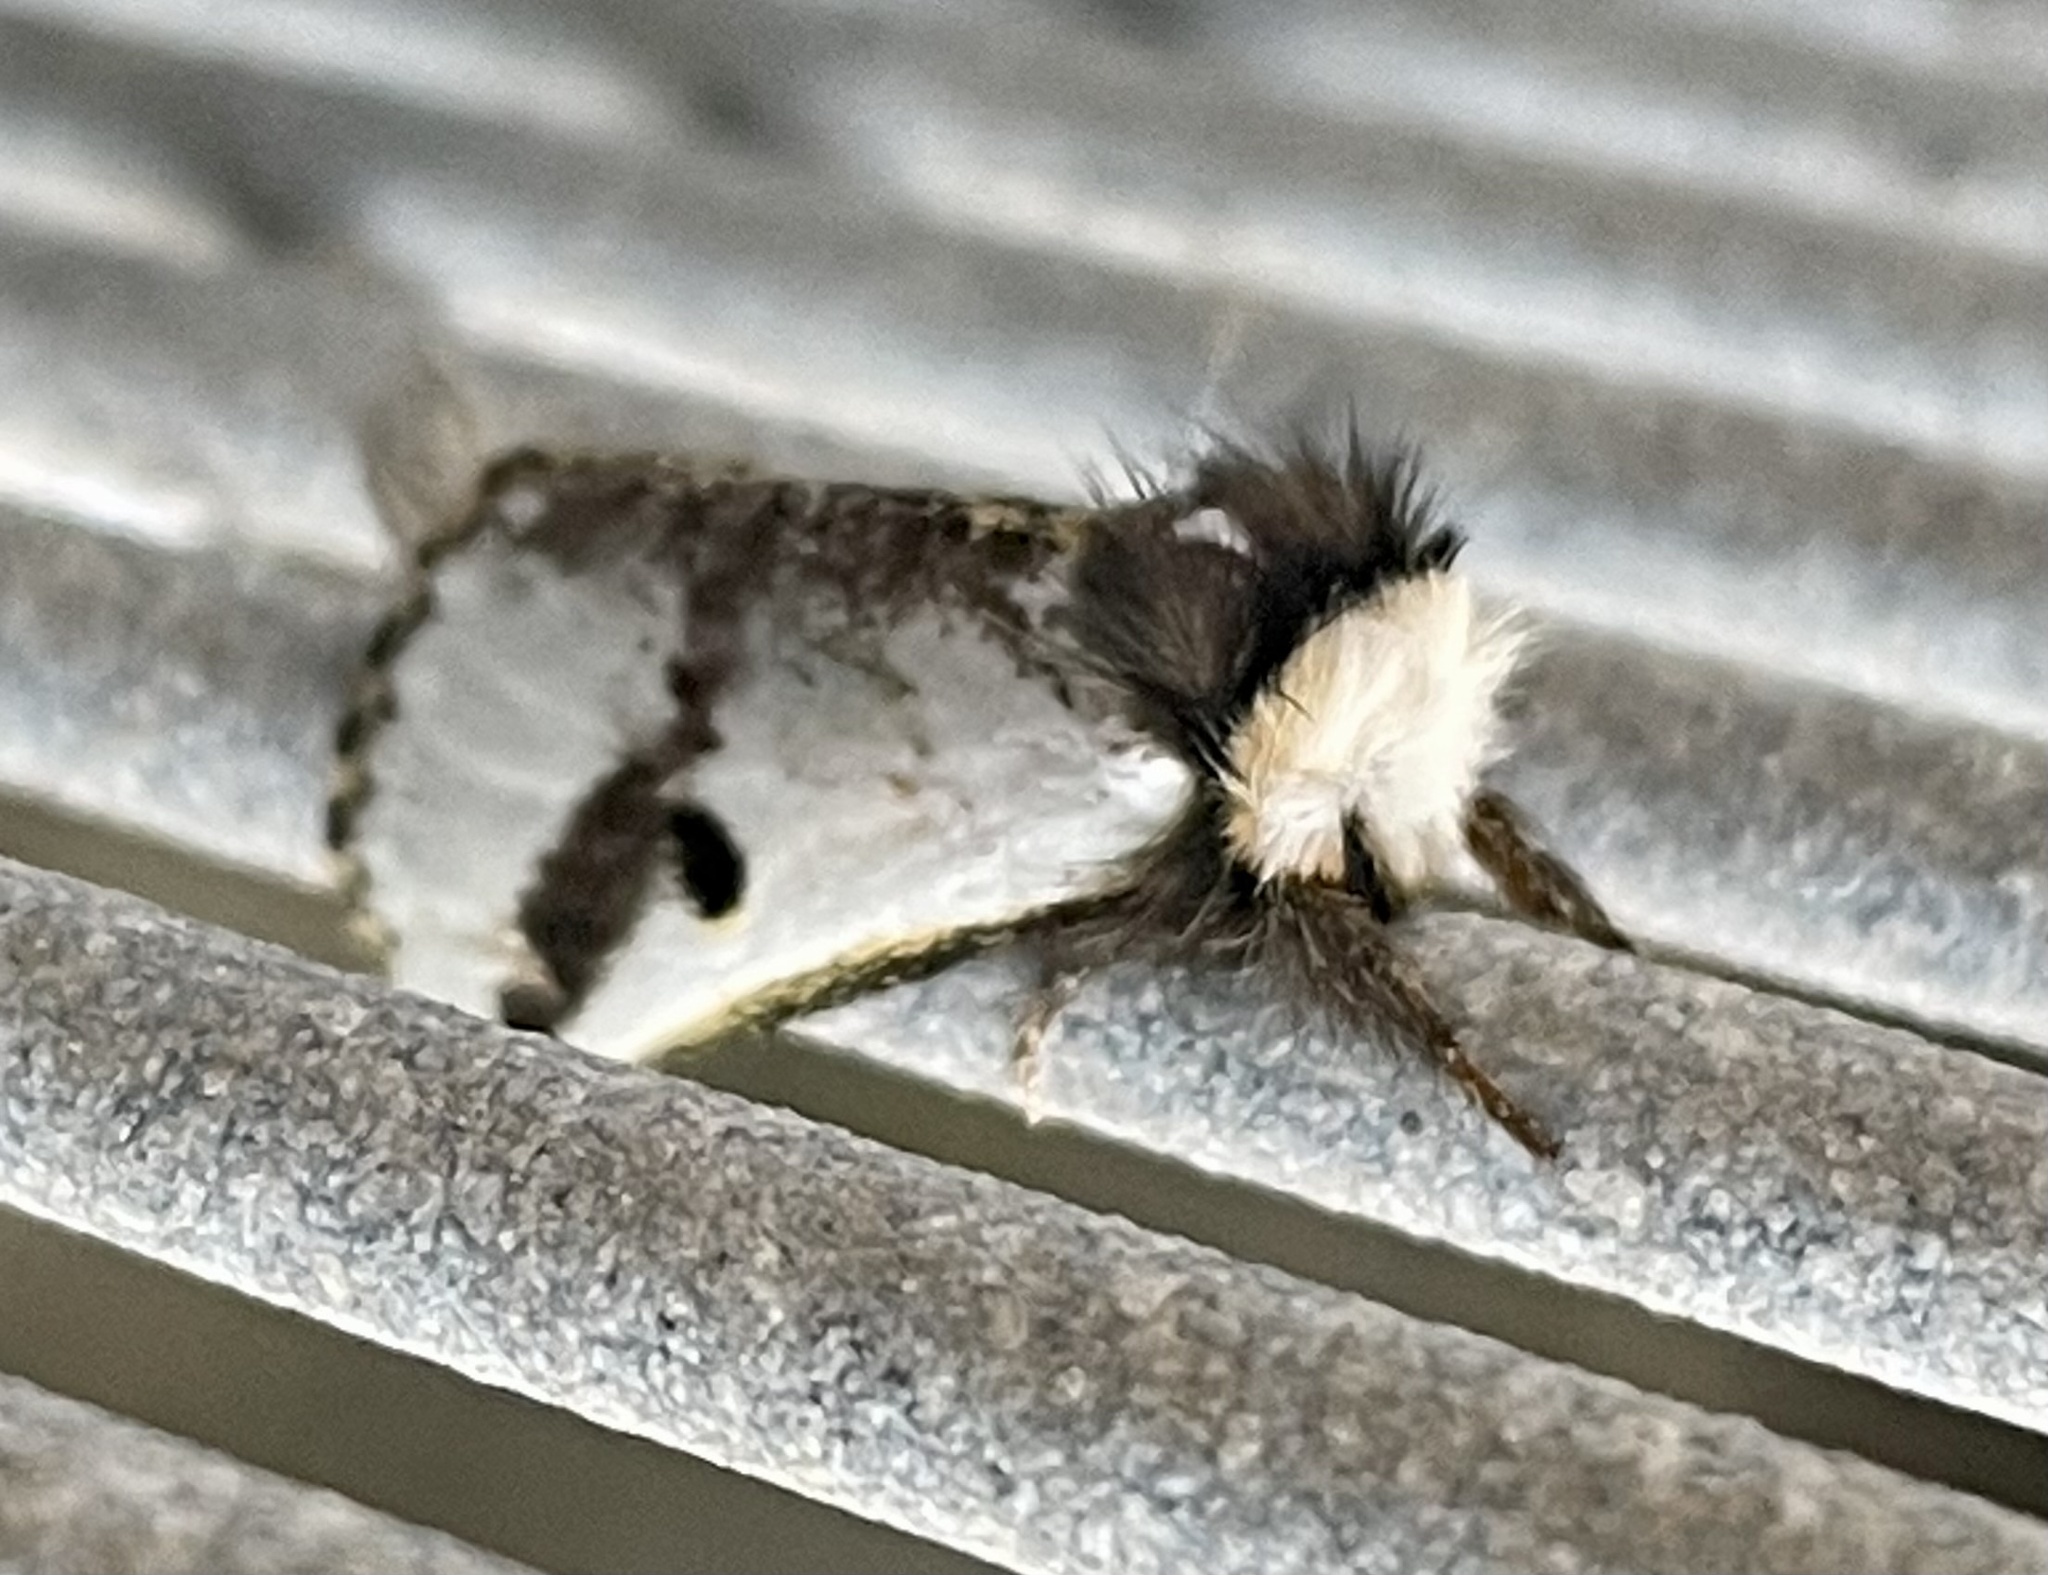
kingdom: Animalia
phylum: Arthropoda
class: Insecta
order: Lepidoptera
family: Notodontidae
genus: Epicoma
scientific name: Epicoma melanospila
